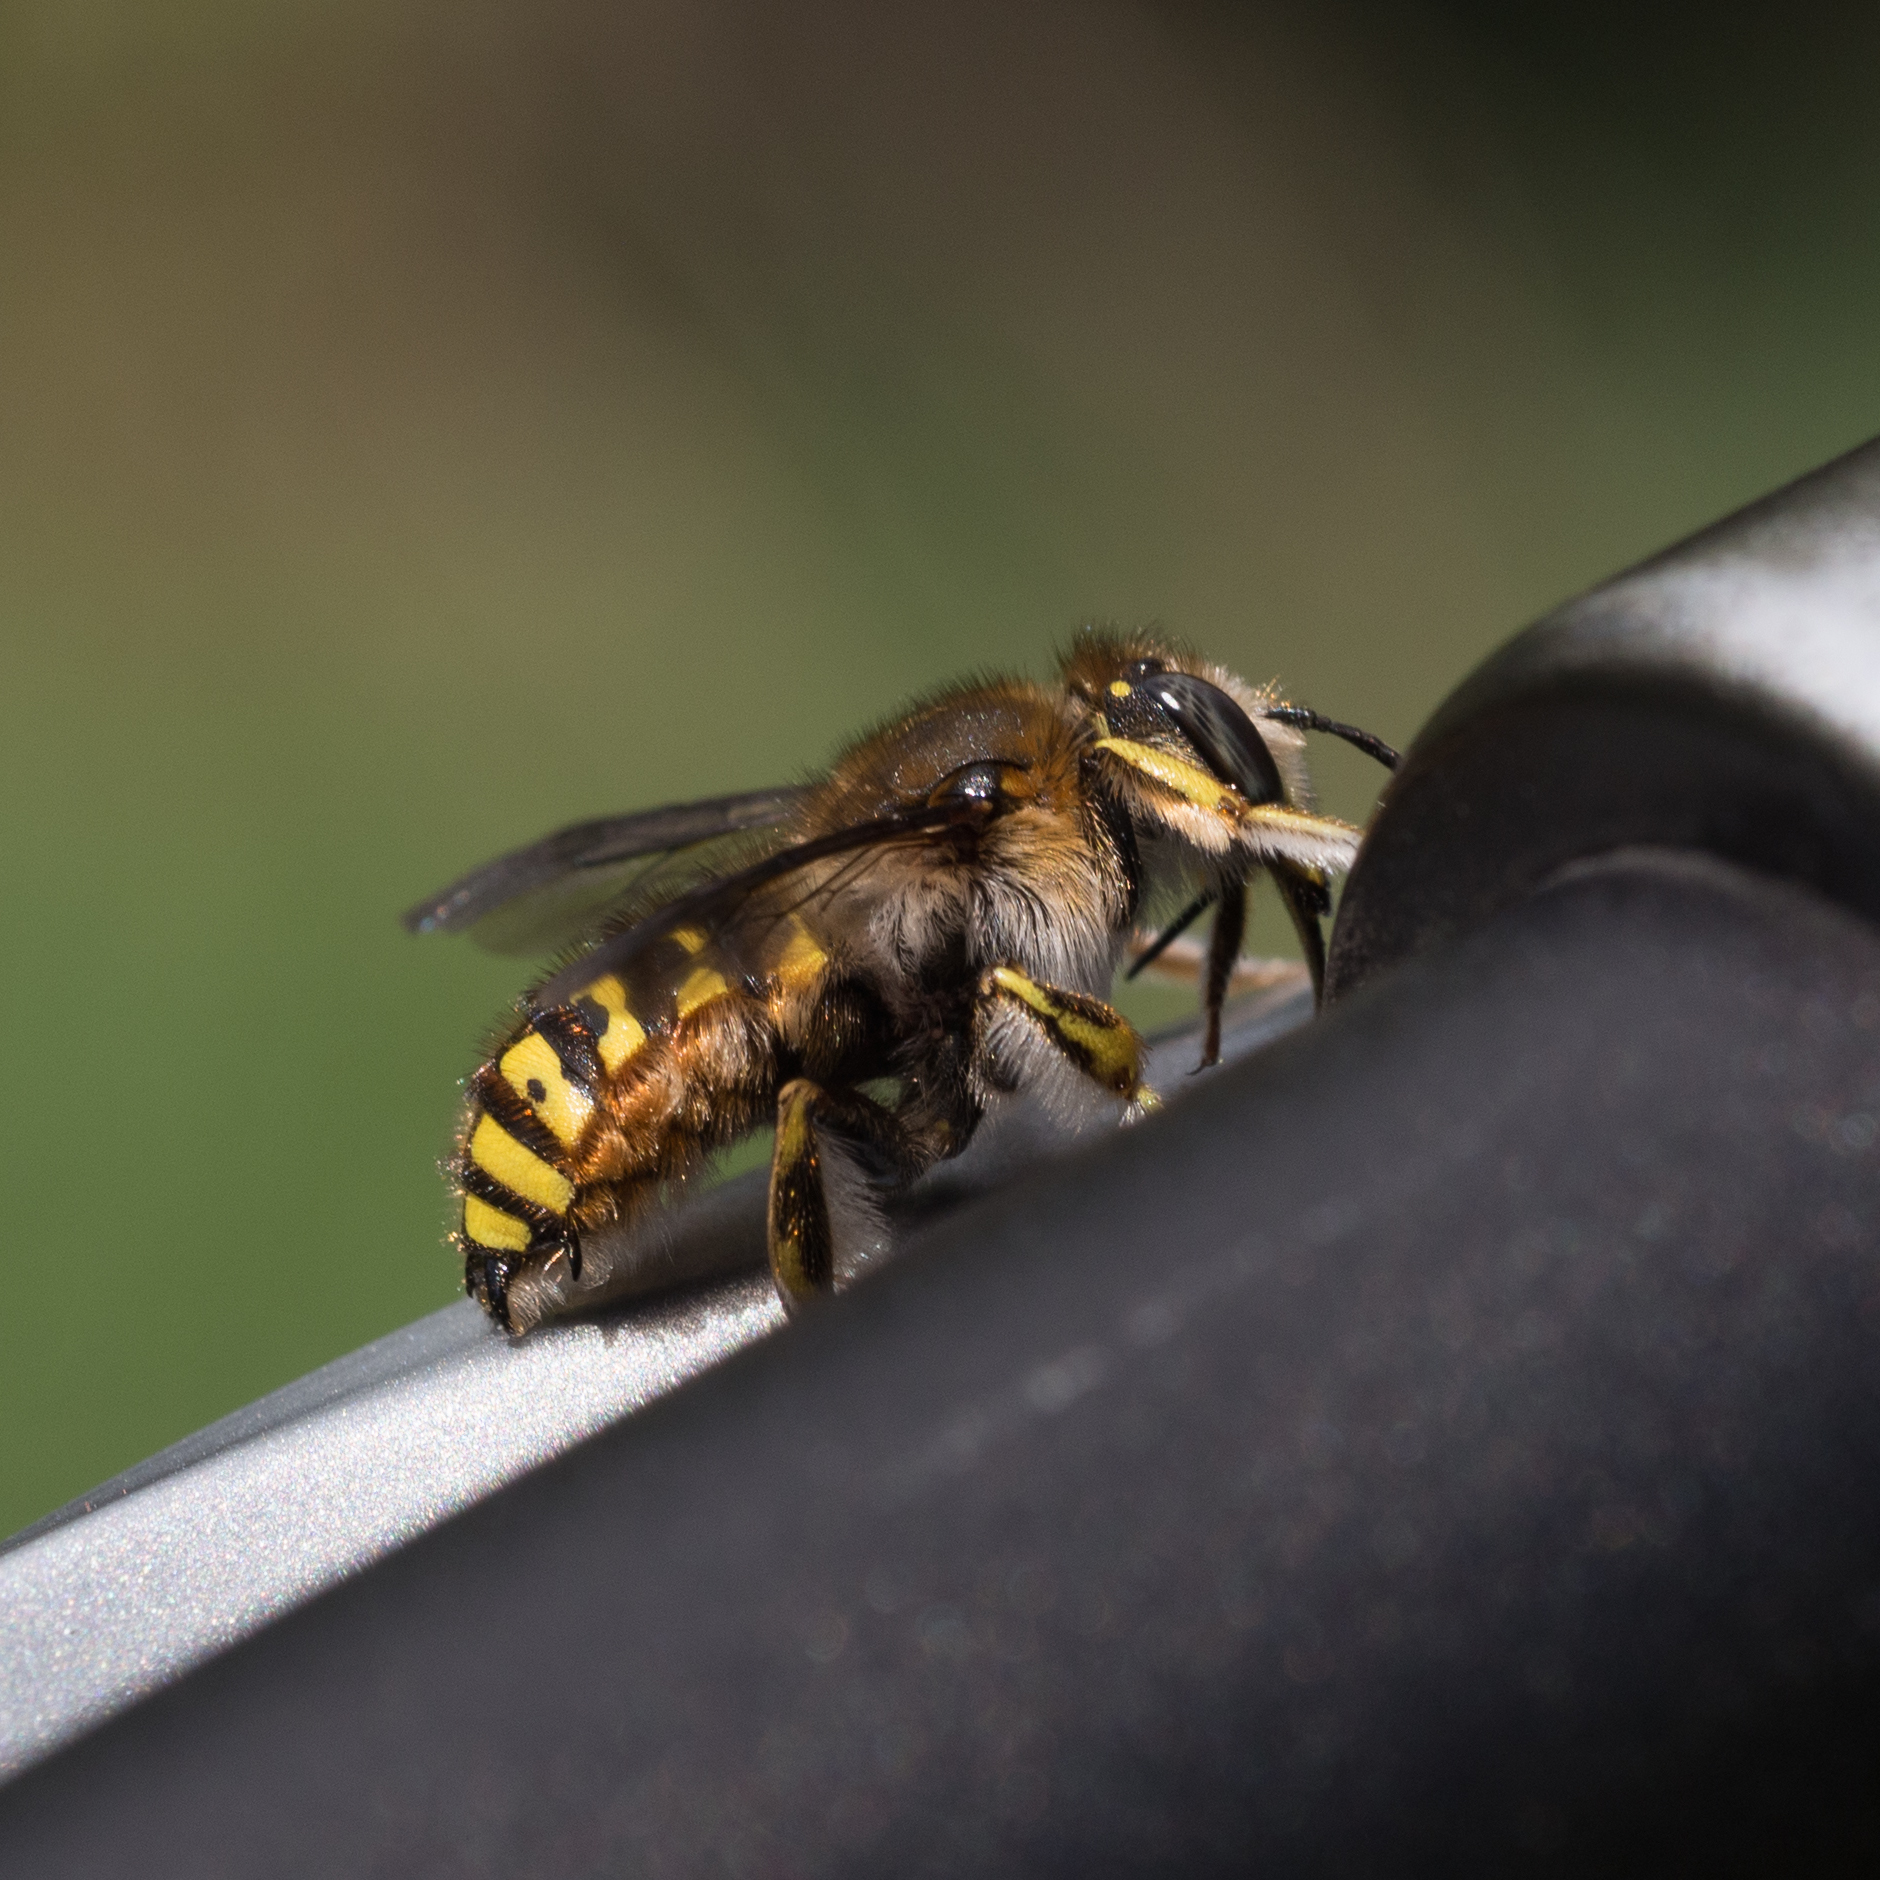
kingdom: Animalia
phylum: Arthropoda
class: Insecta
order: Hymenoptera
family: Megachilidae
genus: Anthidium
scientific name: Anthidium manicatum
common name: Wool carder bee
